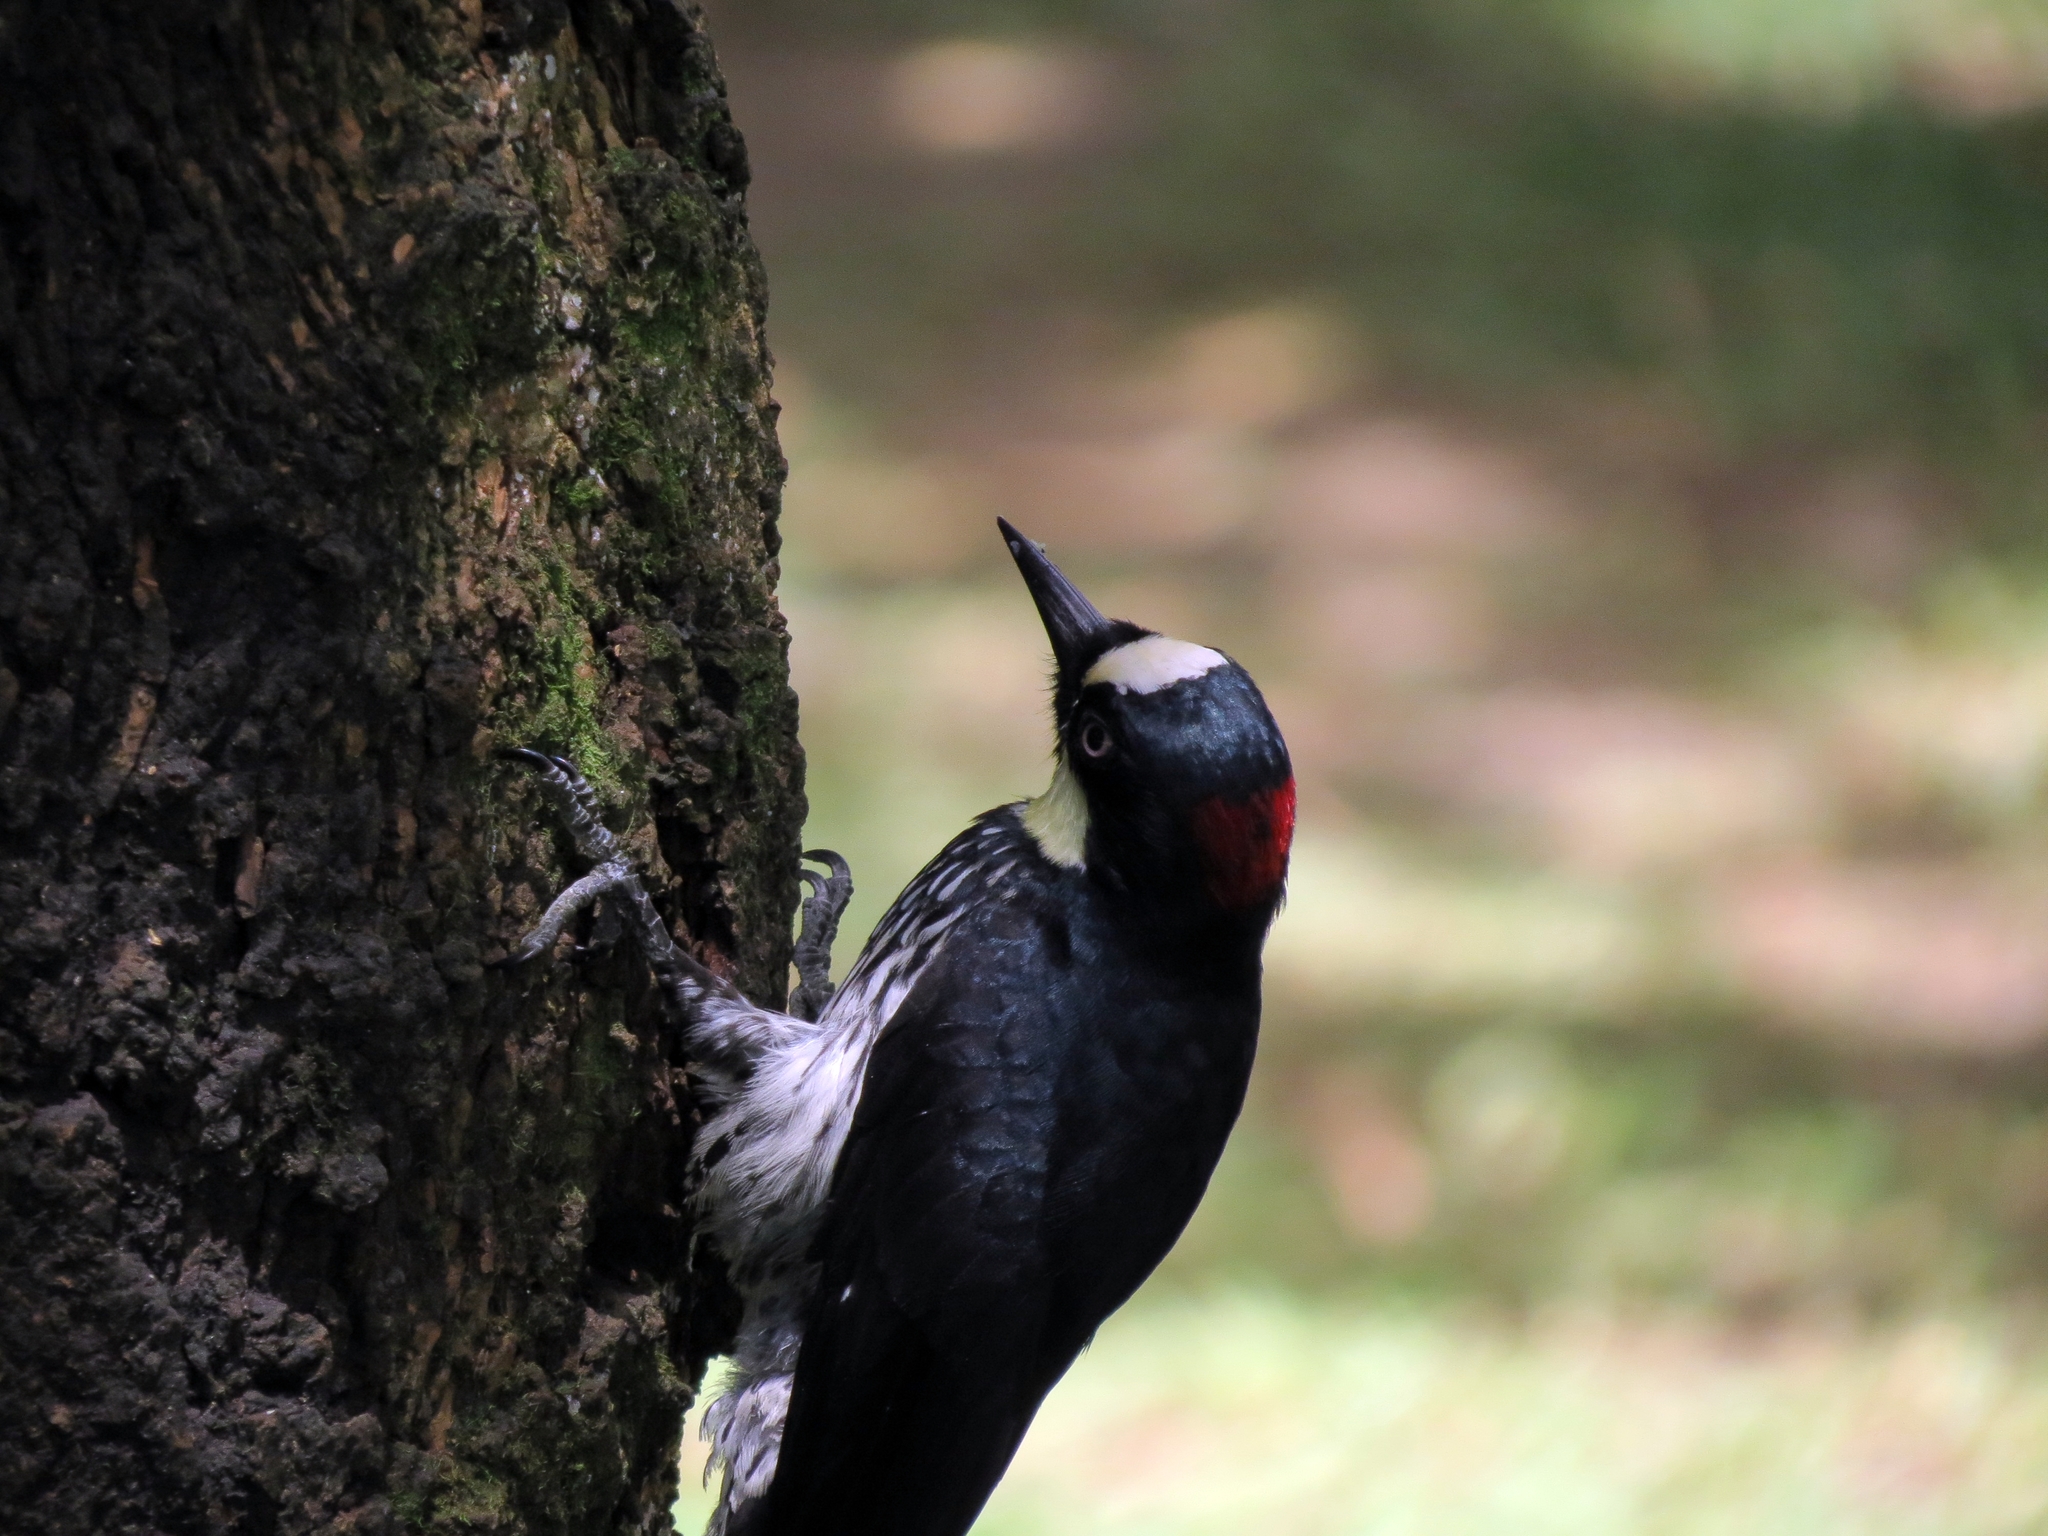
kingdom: Animalia
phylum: Chordata
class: Aves
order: Piciformes
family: Picidae
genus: Melanerpes
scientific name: Melanerpes formicivorus
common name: Acorn woodpecker
